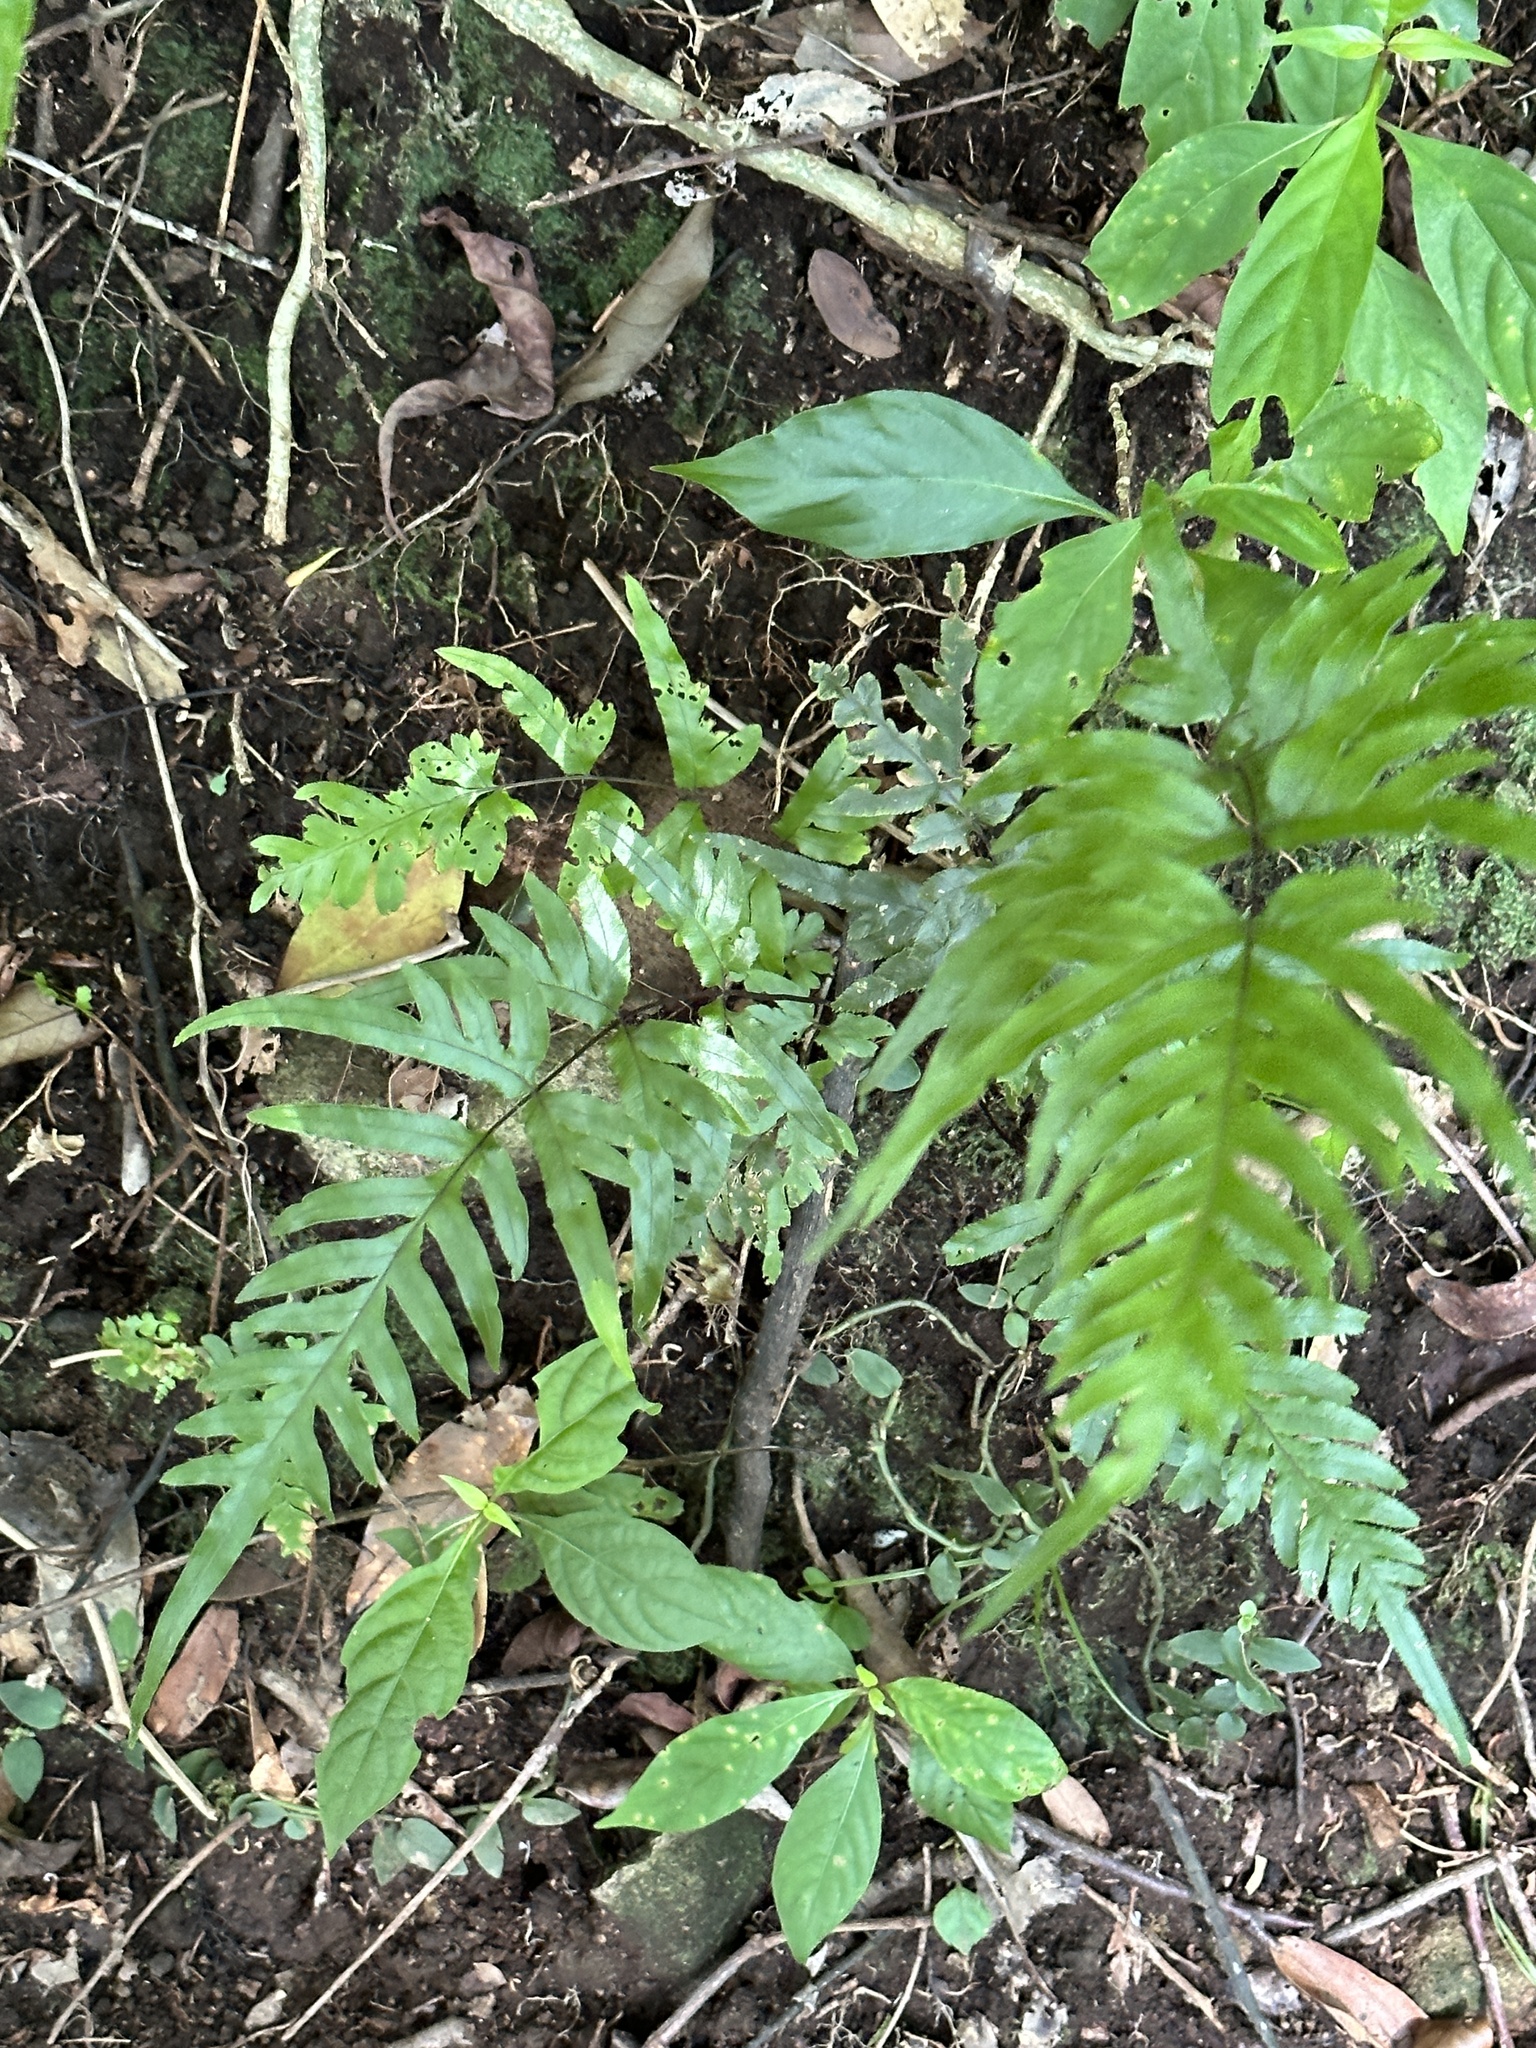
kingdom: Plantae
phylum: Tracheophyta
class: Polypodiopsida
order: Polypodiales
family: Pteridaceae
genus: Pteris
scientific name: Pteris semipinnata
